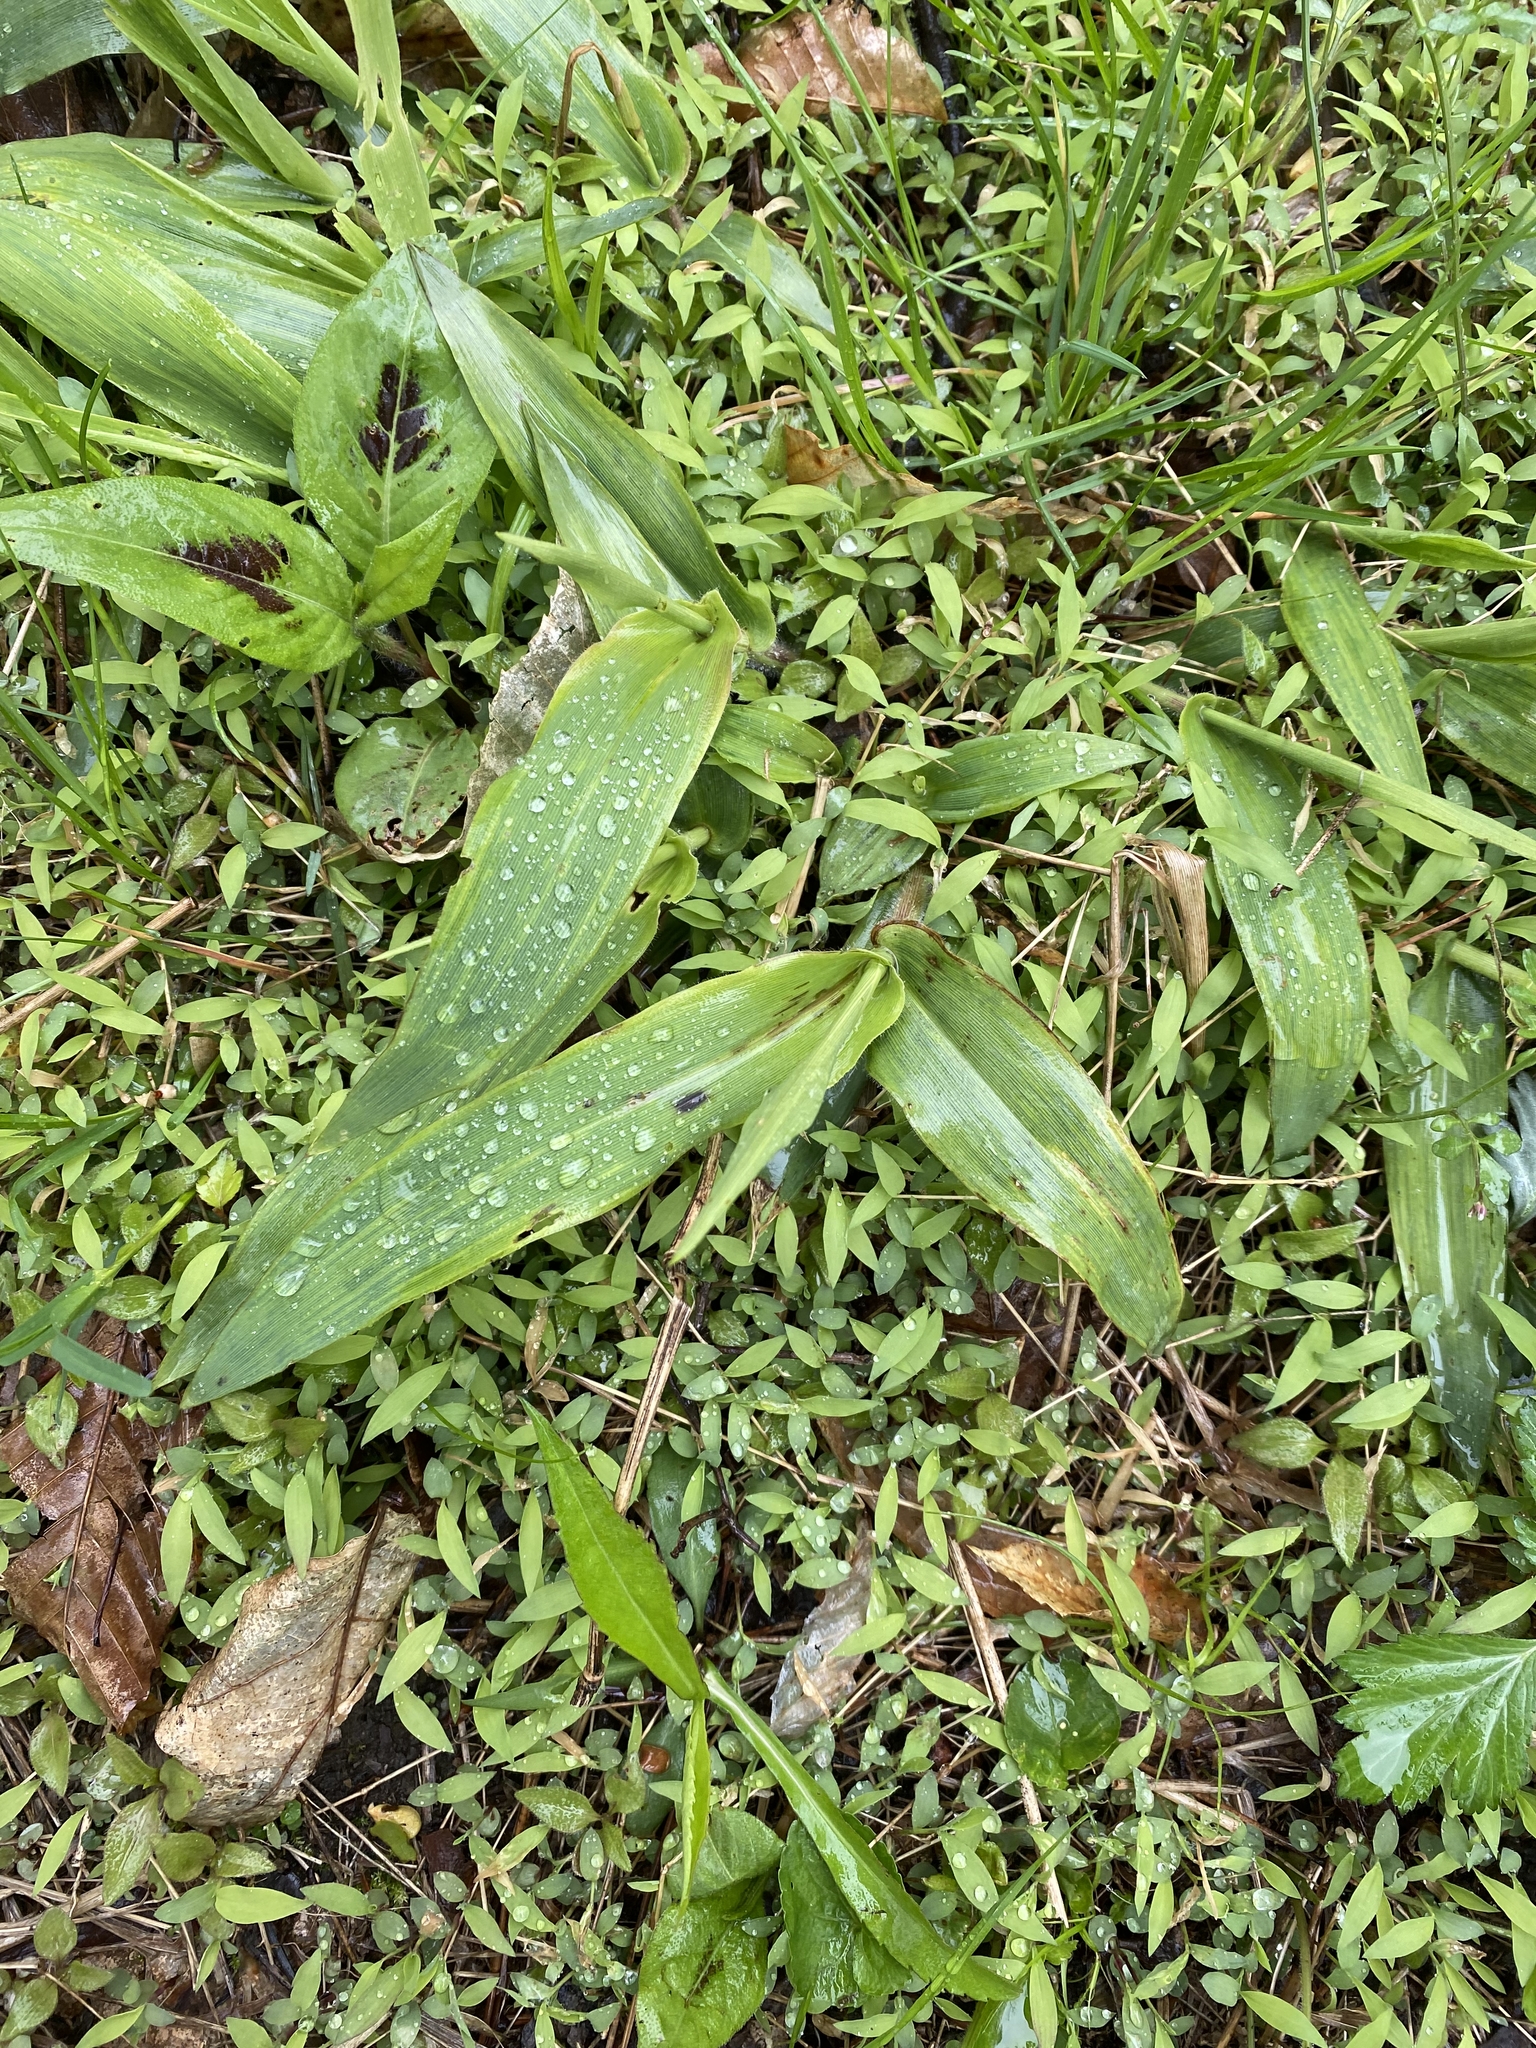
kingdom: Plantae
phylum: Tracheophyta
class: Liliopsida
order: Poales
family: Poaceae
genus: Dichanthelium
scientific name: Dichanthelium clandestinum
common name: Deer-tongue grass
